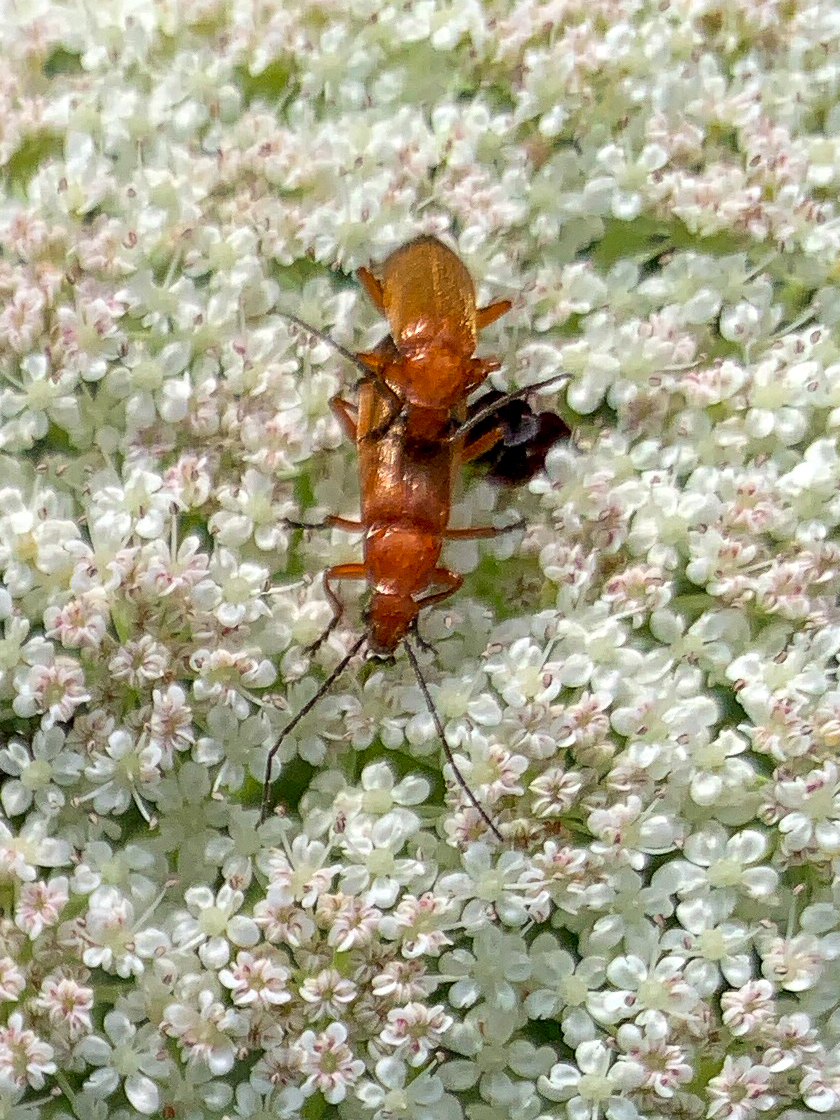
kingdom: Animalia
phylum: Arthropoda
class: Insecta
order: Coleoptera
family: Cantharidae
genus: Rhagonycha
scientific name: Rhagonycha fulva
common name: Common red soldier beetle
